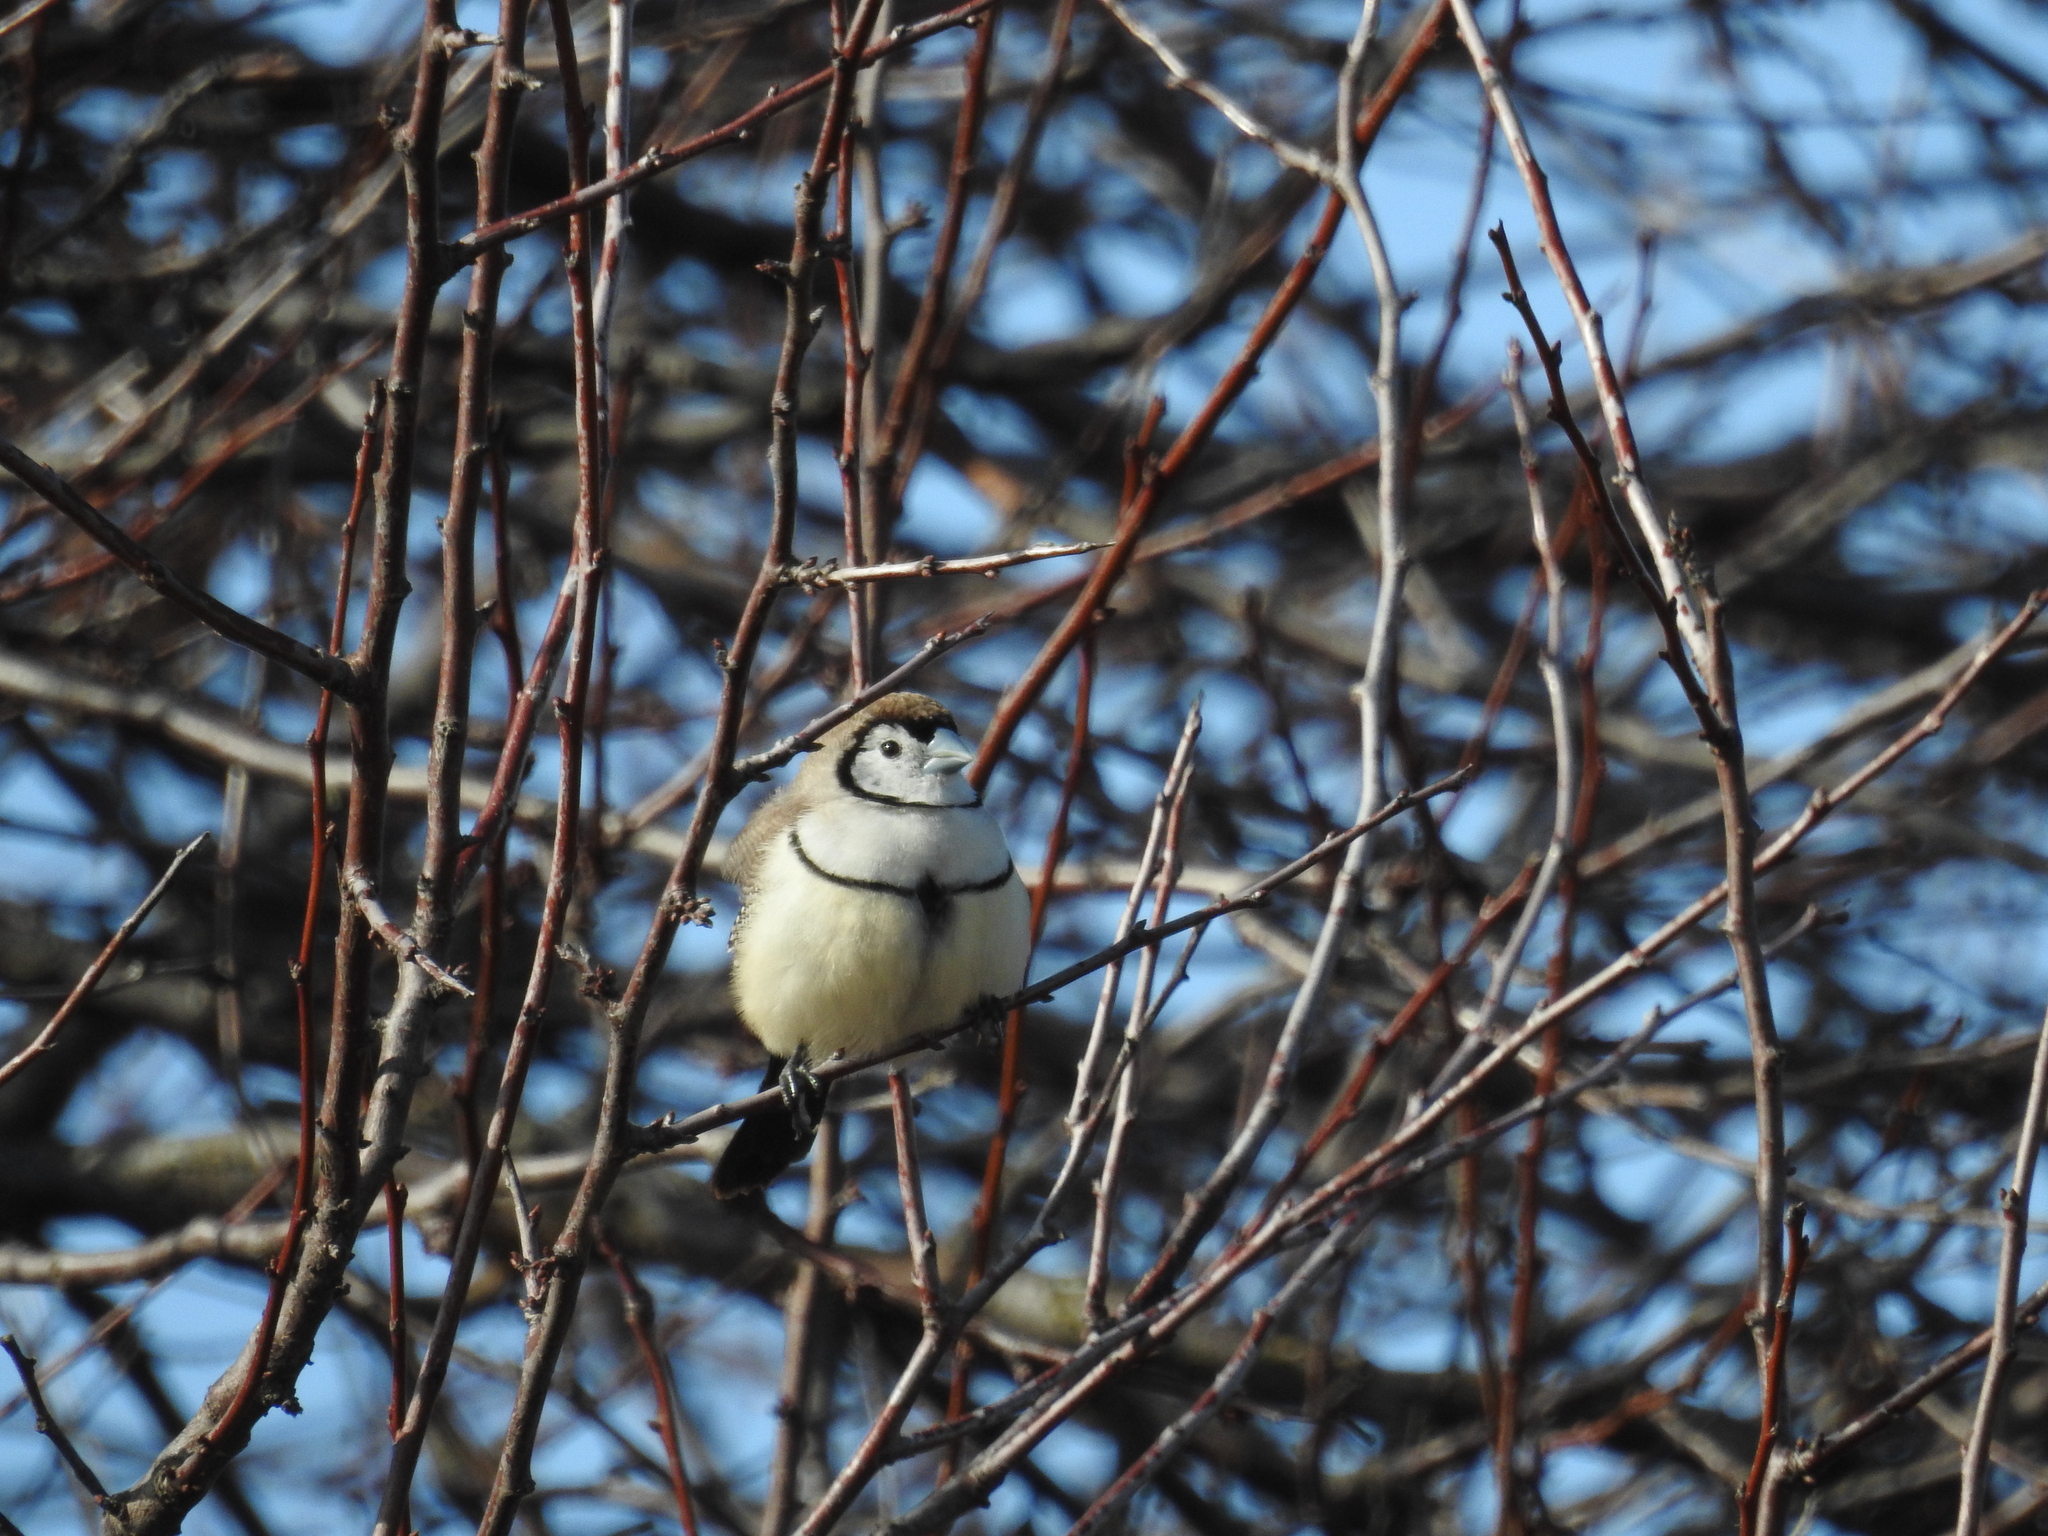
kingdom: Animalia
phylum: Chordata
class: Aves
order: Passeriformes
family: Estrildidae
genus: Taeniopygia
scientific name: Taeniopygia bichenovii
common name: Double-barred finch
